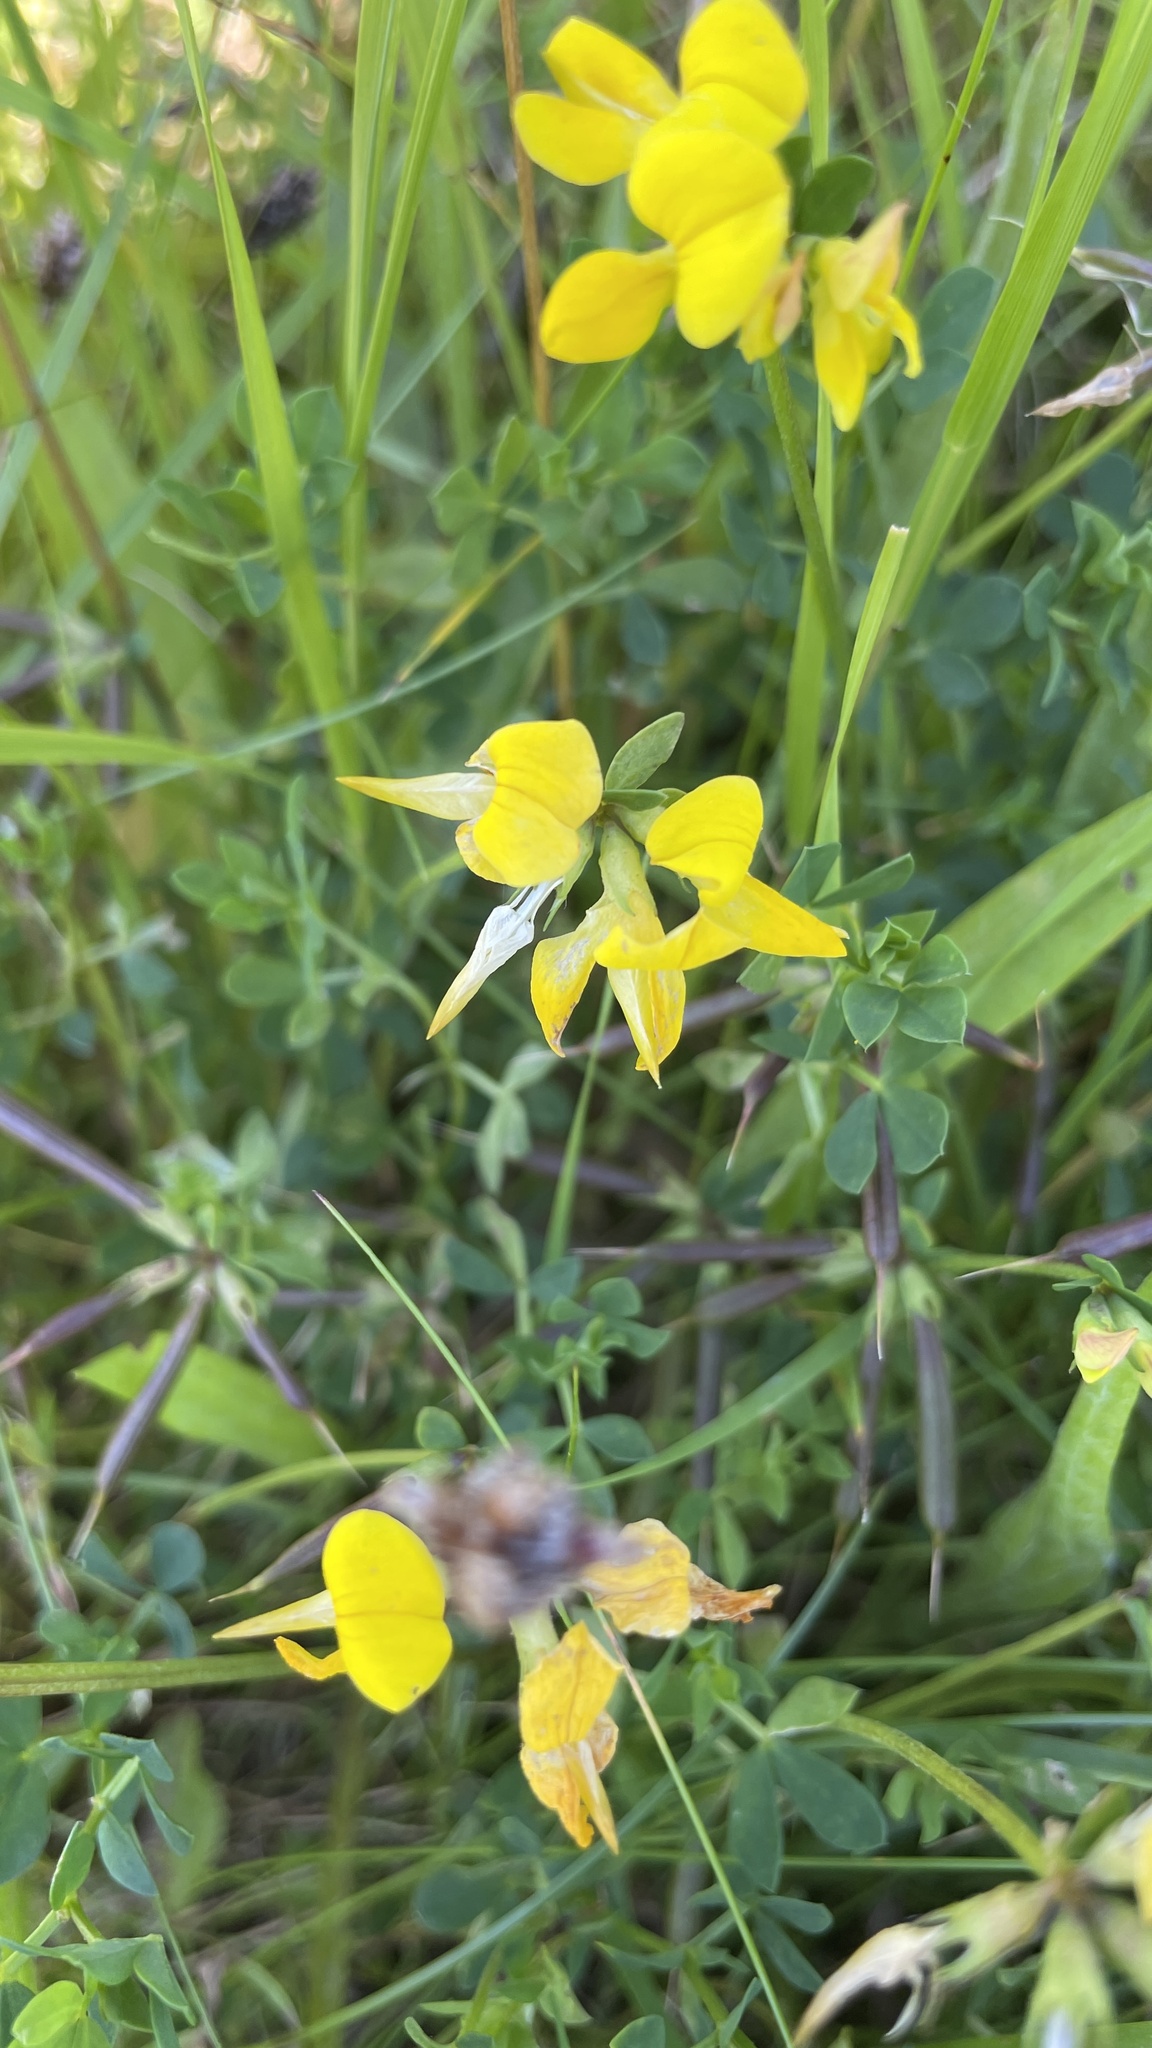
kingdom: Plantae
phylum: Tracheophyta
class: Magnoliopsida
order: Fabales
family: Fabaceae
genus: Lotus
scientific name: Lotus corniculatus
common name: Common bird's-foot-trefoil
